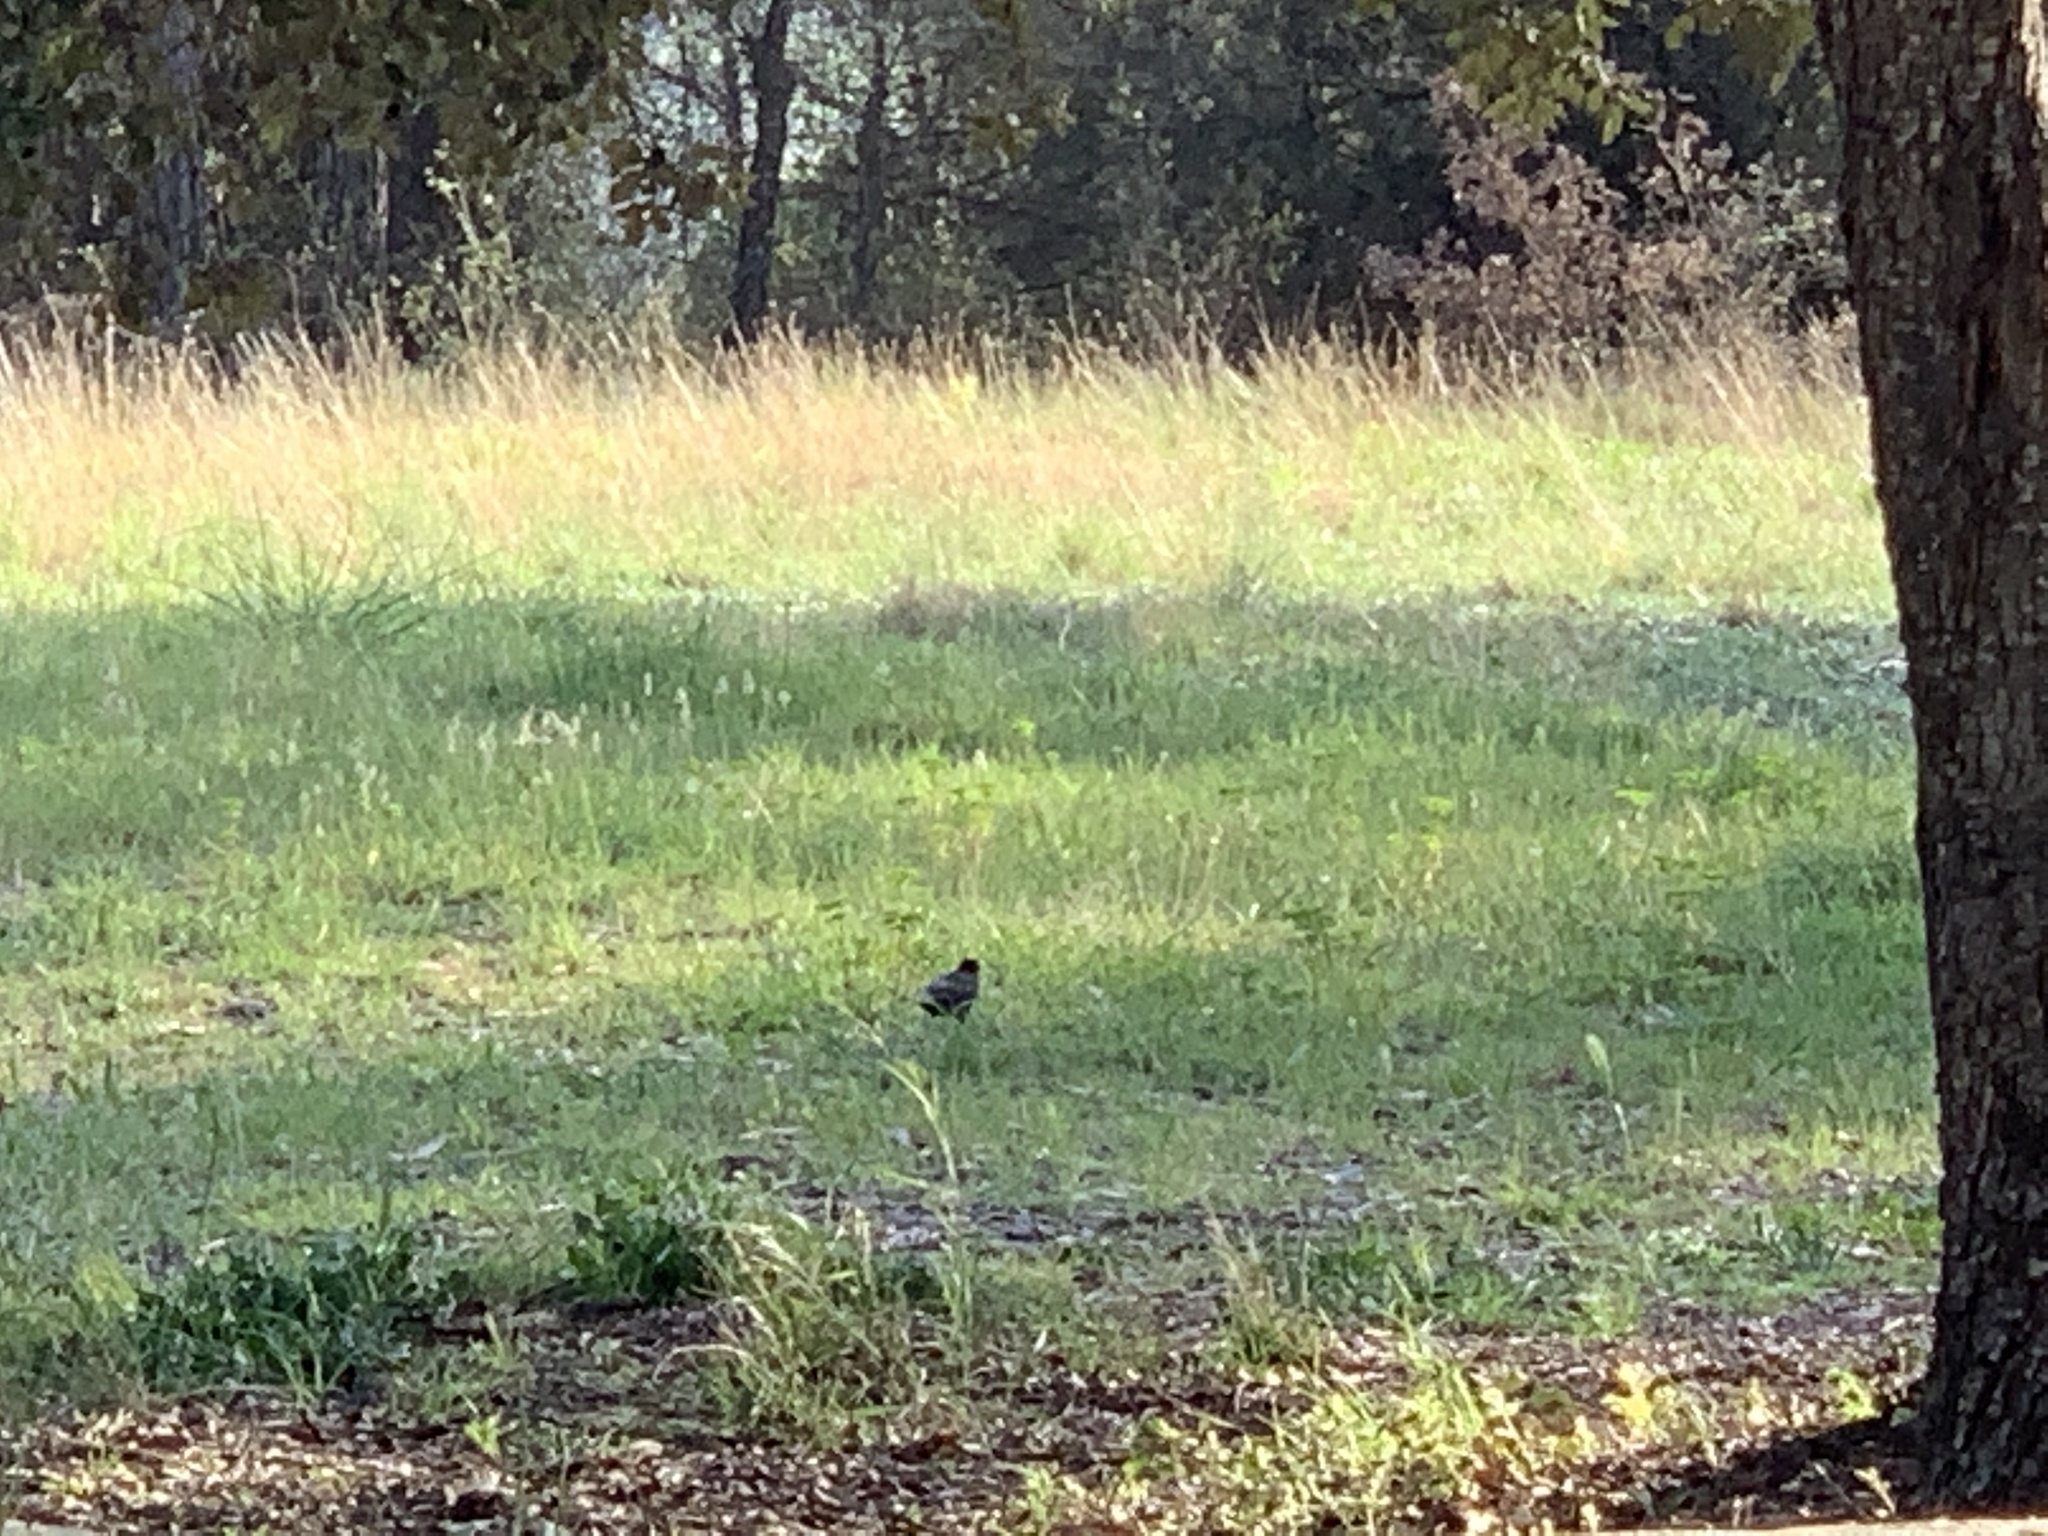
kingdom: Animalia
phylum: Chordata
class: Aves
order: Passeriformes
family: Turdidae
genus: Turdus
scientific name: Turdus merula
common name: Common blackbird
